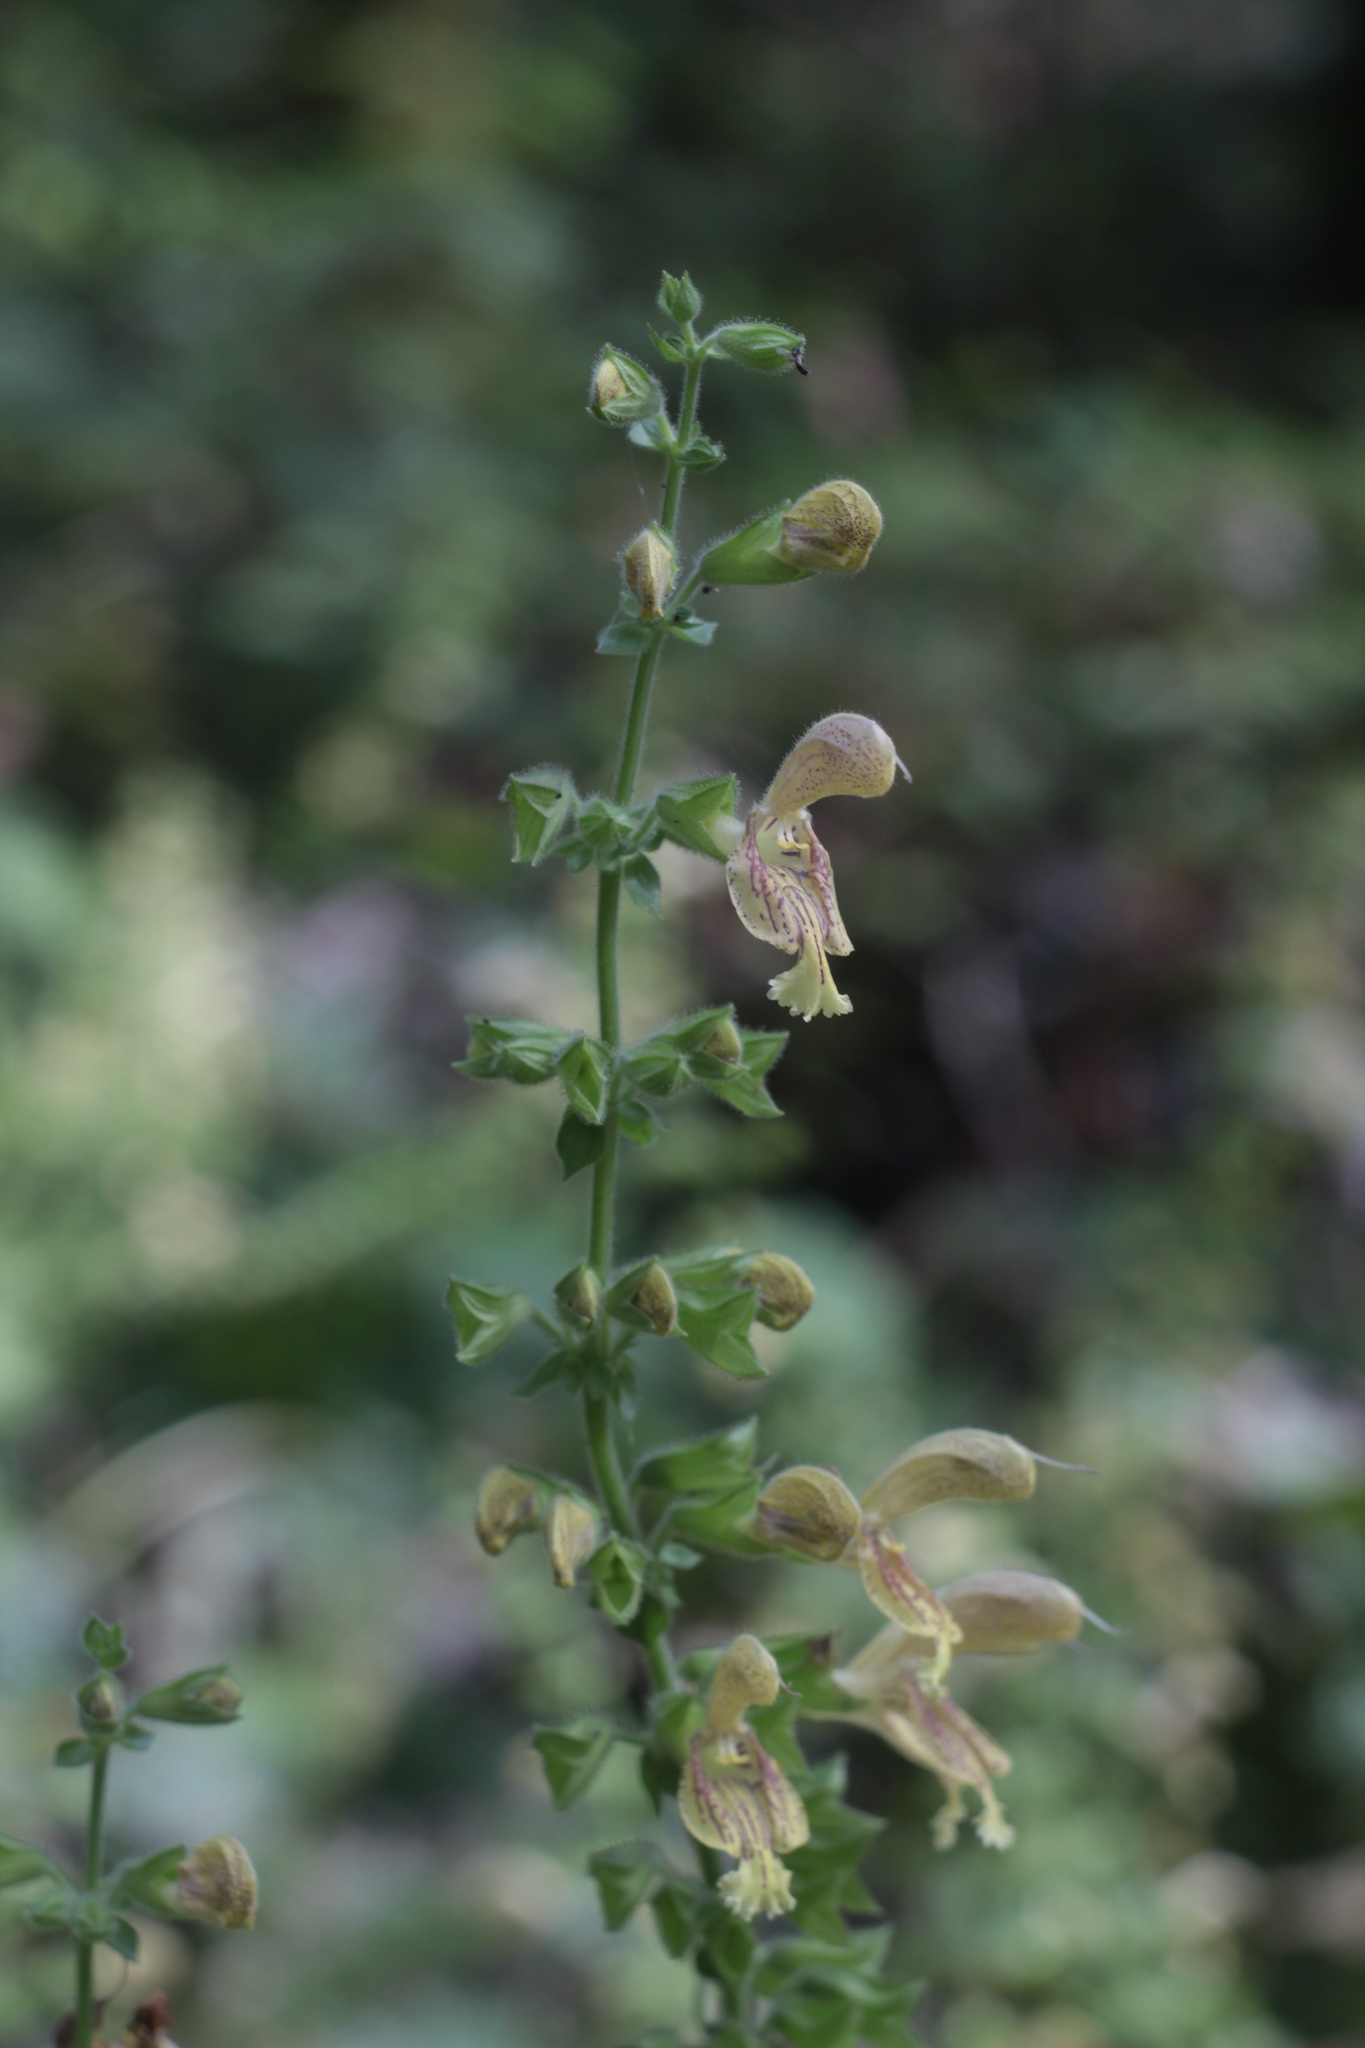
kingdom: Plantae
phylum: Tracheophyta
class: Magnoliopsida
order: Lamiales
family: Lamiaceae
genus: Salvia
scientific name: Salvia glutinosa
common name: Sticky clary
